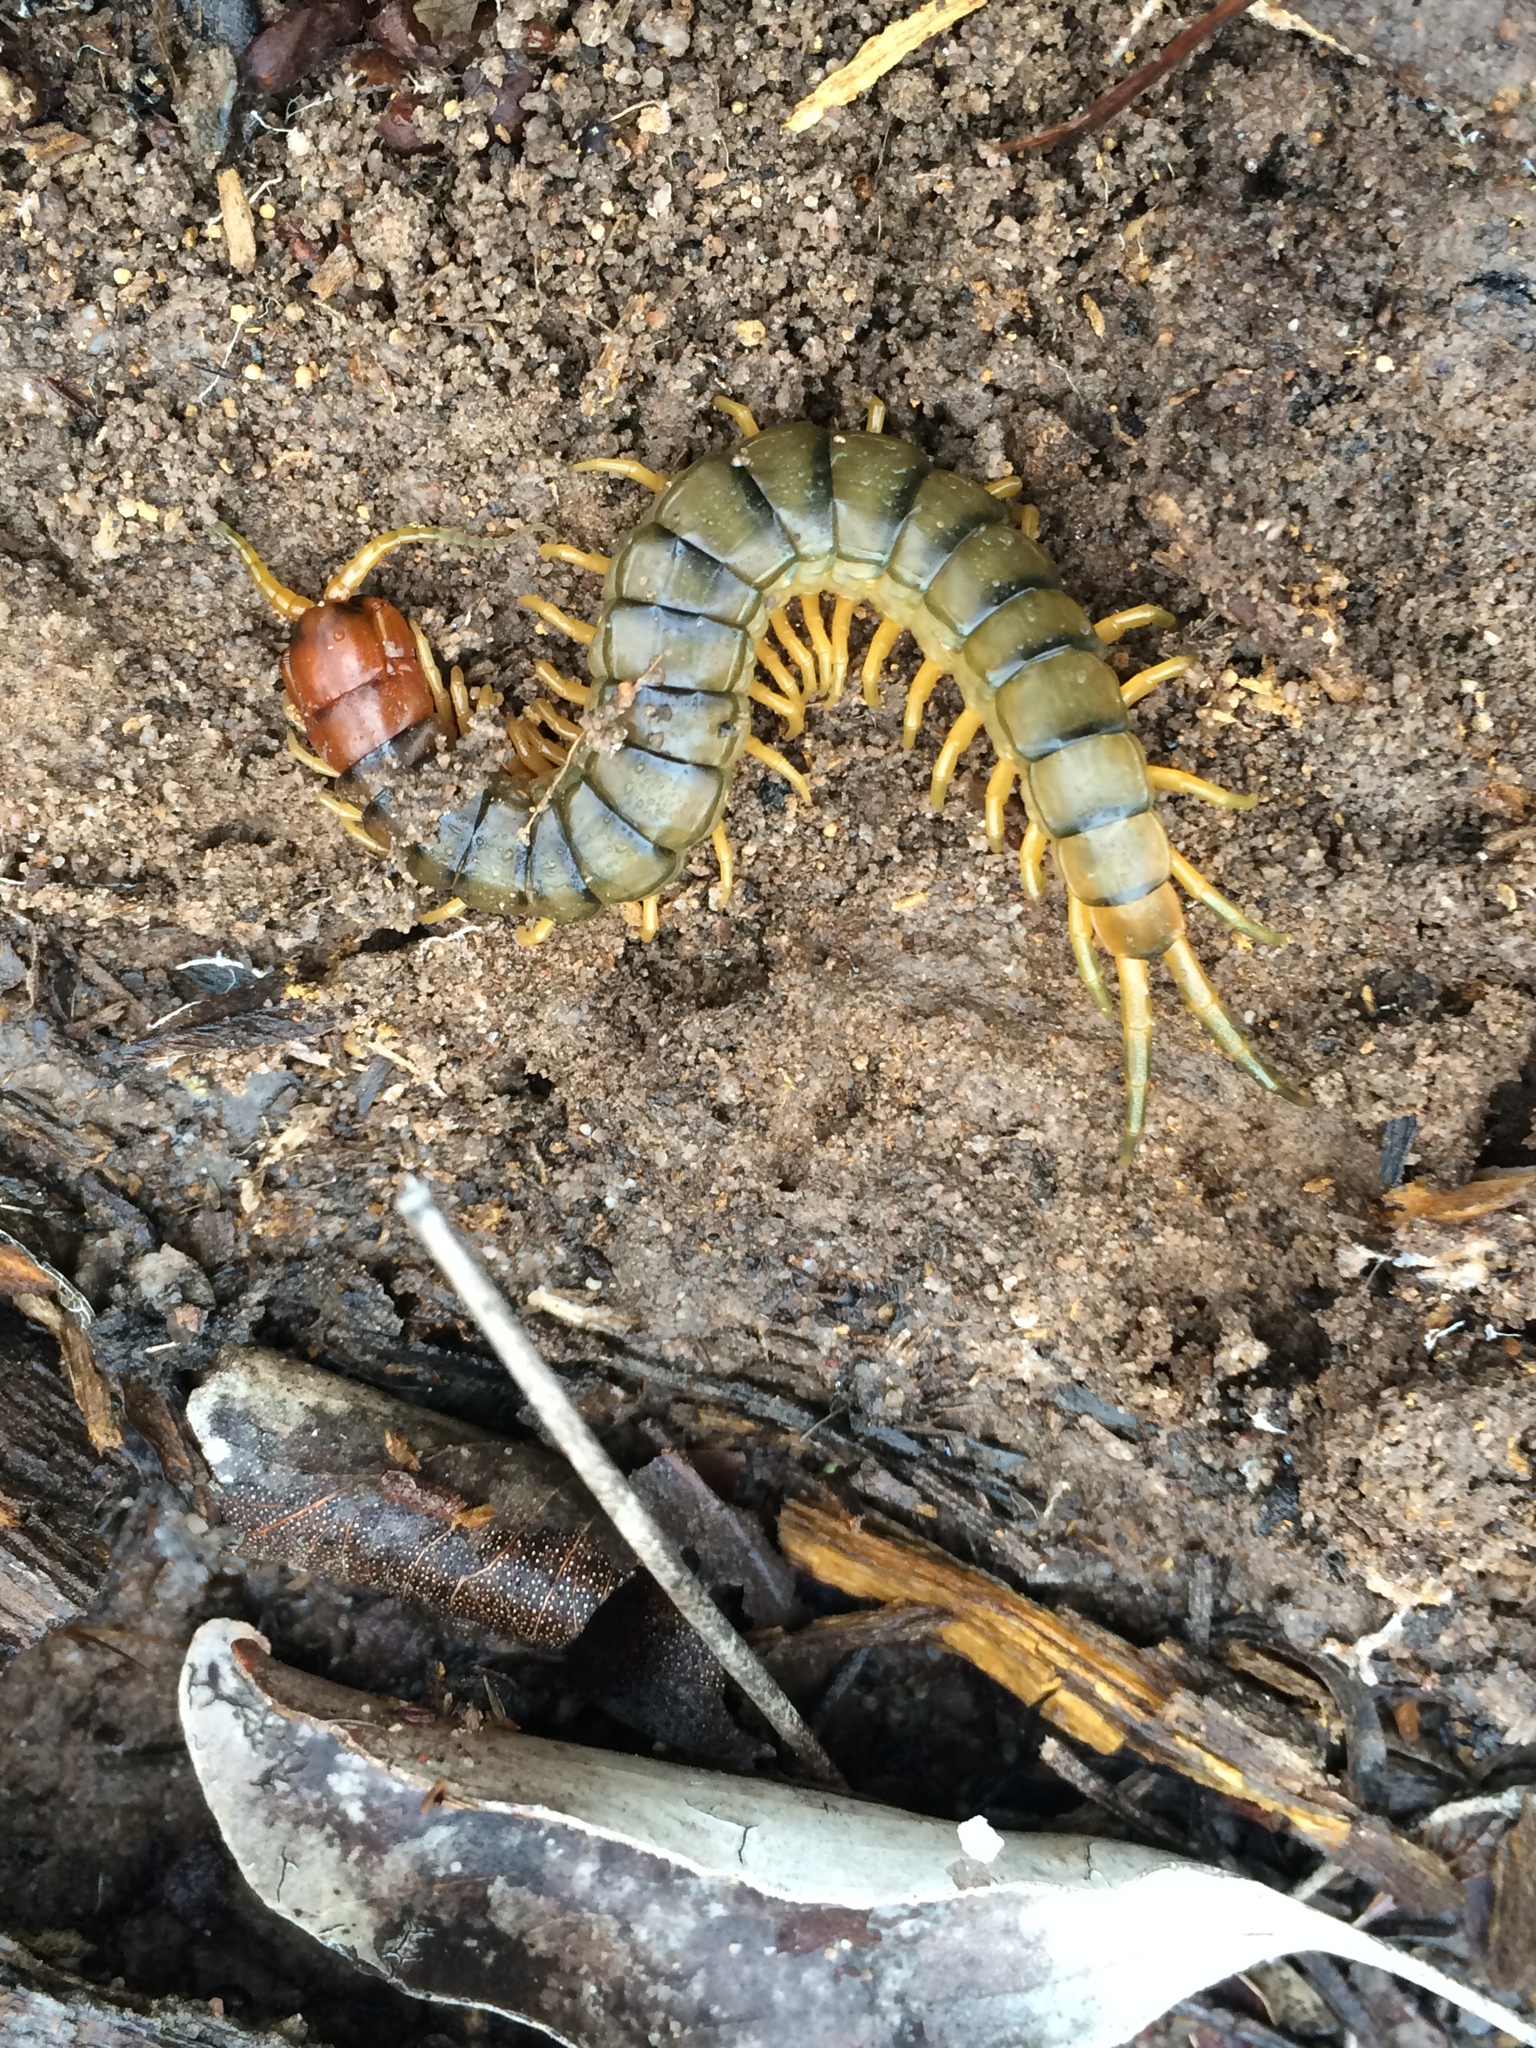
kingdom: Animalia
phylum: Arthropoda
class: Chilopoda
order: Scolopendromorpha
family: Scolopendridae
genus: Cormocephalus
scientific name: Cormocephalus monteithi
